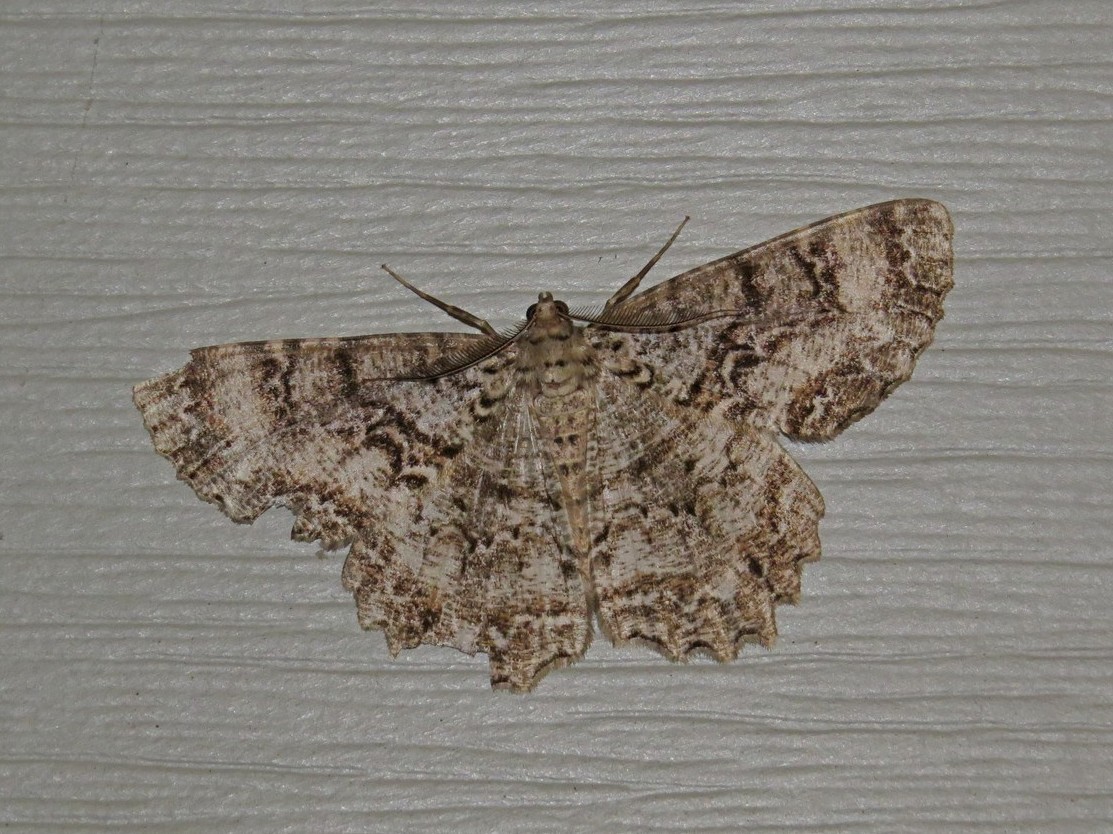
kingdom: Animalia
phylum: Arthropoda
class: Insecta
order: Lepidoptera
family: Geometridae
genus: Epimecis
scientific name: Epimecis hortaria
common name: Tulip-tree beauty
